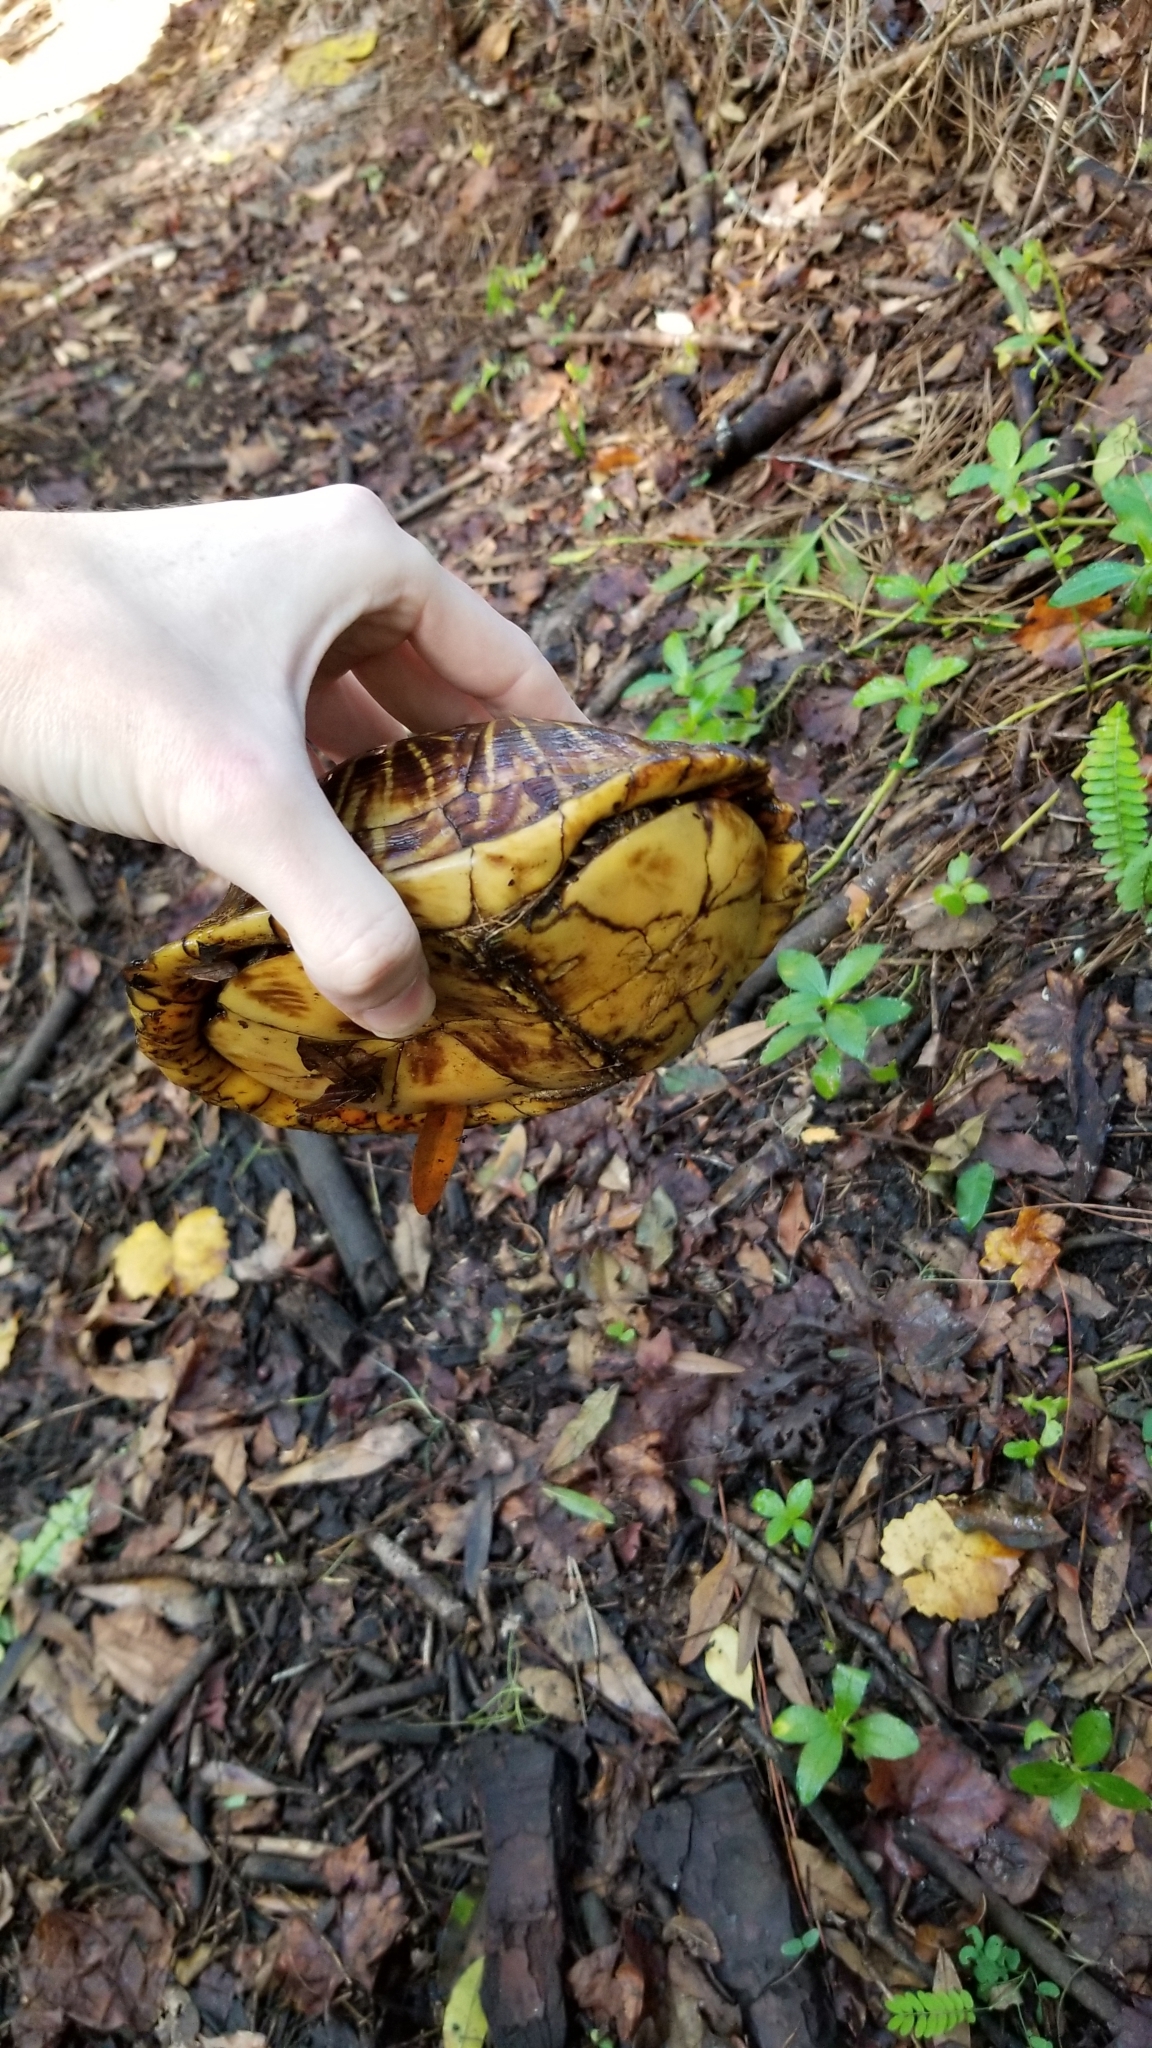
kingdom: Animalia
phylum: Chordata
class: Testudines
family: Emydidae
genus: Terrapene
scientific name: Terrapene carolina
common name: Common box turtle
